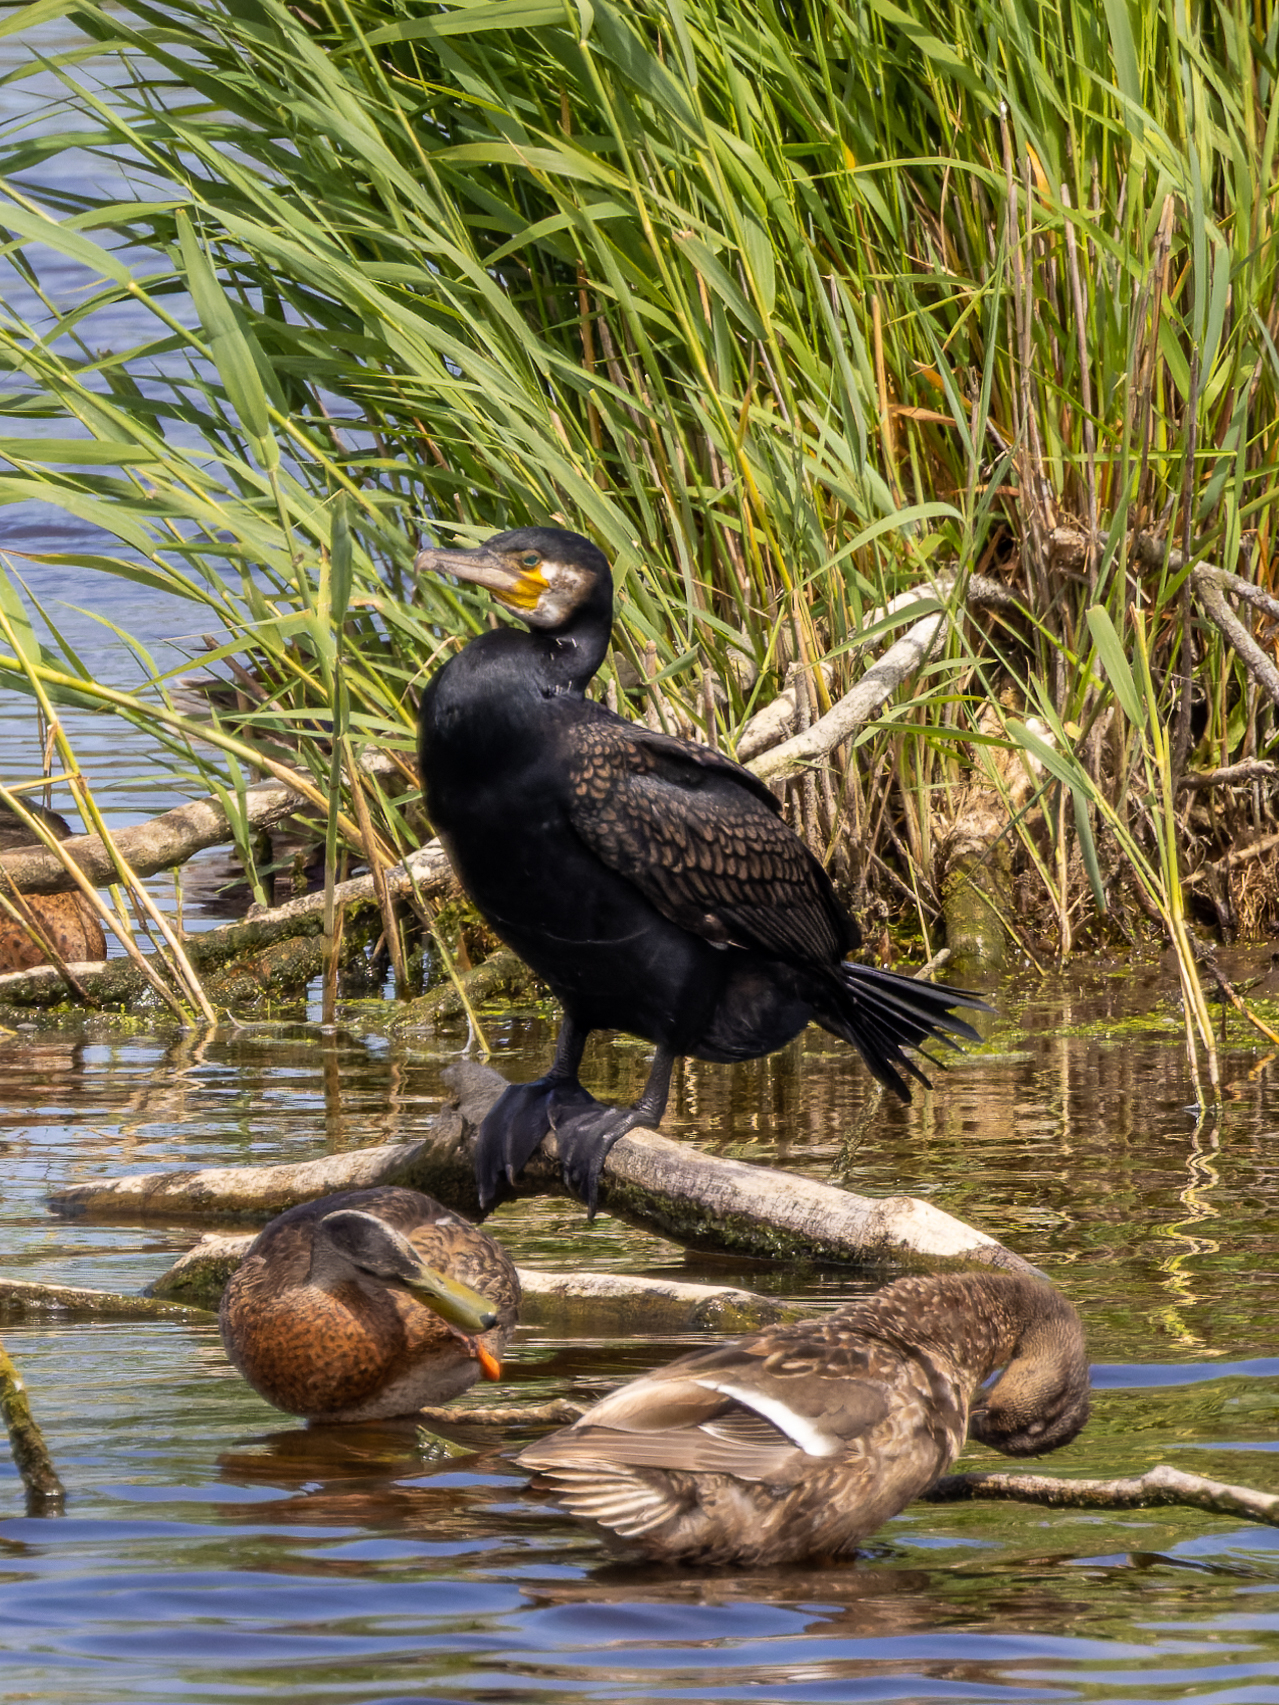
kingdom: Animalia
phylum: Chordata
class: Aves
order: Suliformes
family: Phalacrocoracidae
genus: Phalacrocorax
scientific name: Phalacrocorax carbo
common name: Great cormorant
